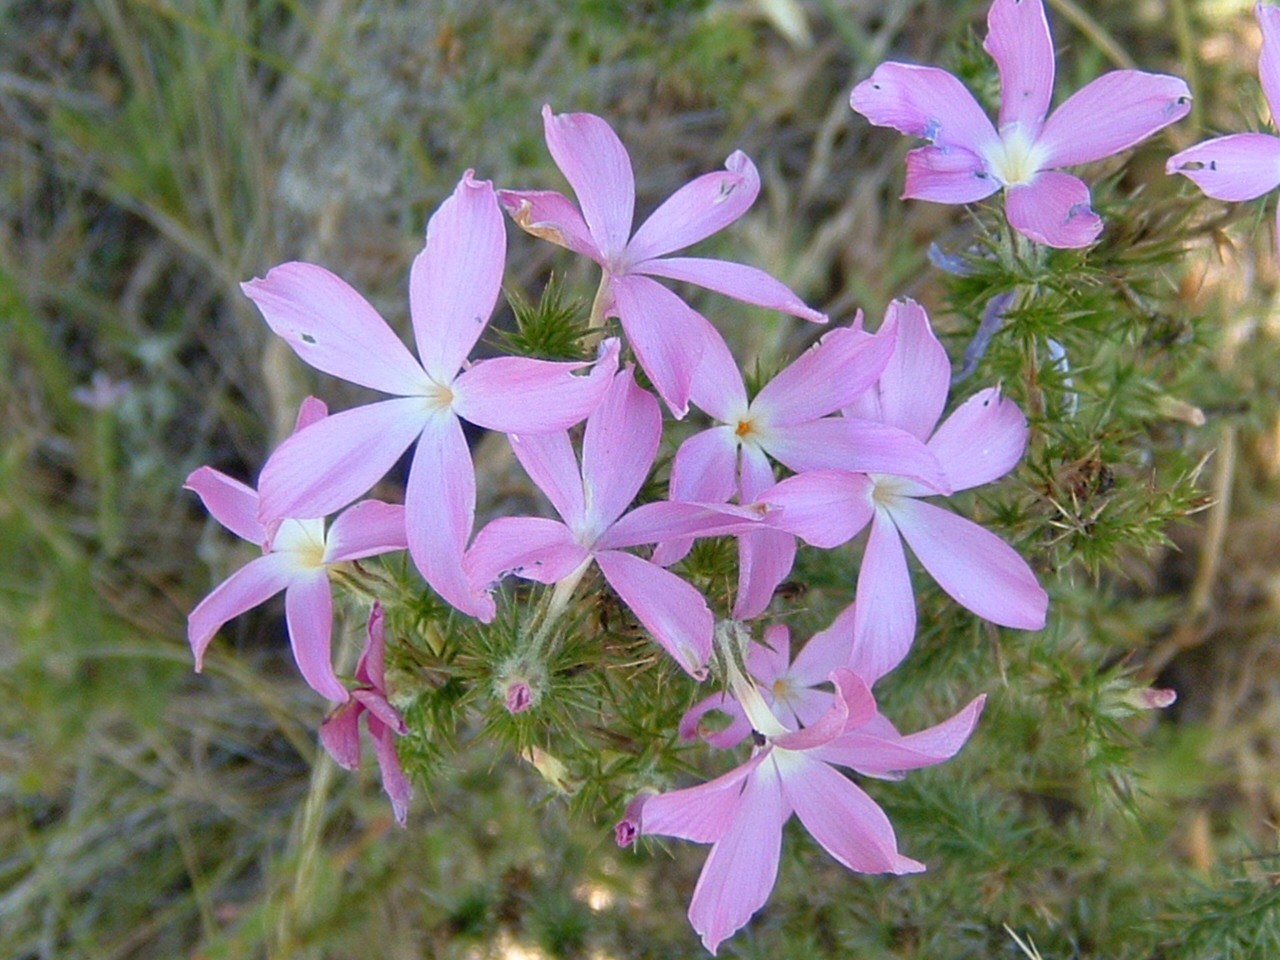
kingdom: Plantae
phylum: Tracheophyta
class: Magnoliopsida
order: Ericales
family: Polemoniaceae
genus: Linanthus
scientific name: Linanthus californicus
